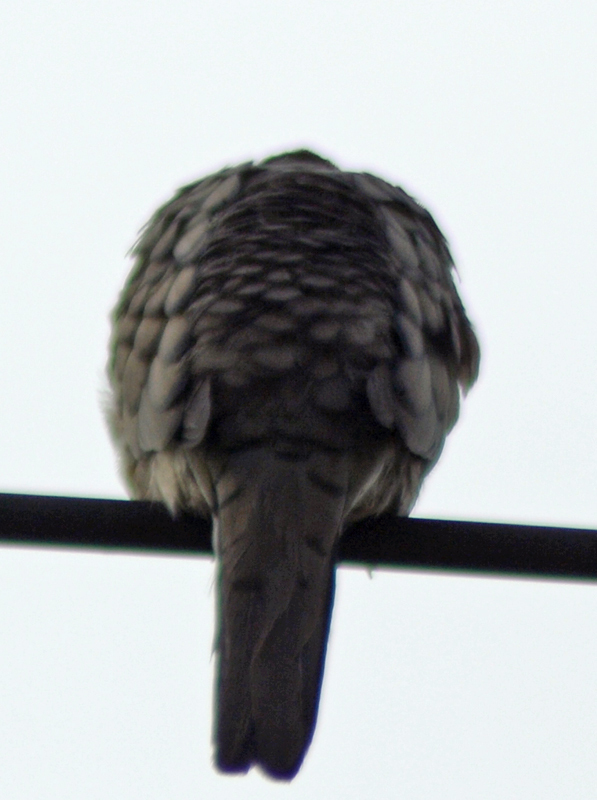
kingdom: Animalia
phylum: Chordata
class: Aves
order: Columbiformes
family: Columbidae
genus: Columbina
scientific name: Columbina inca
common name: Inca dove
